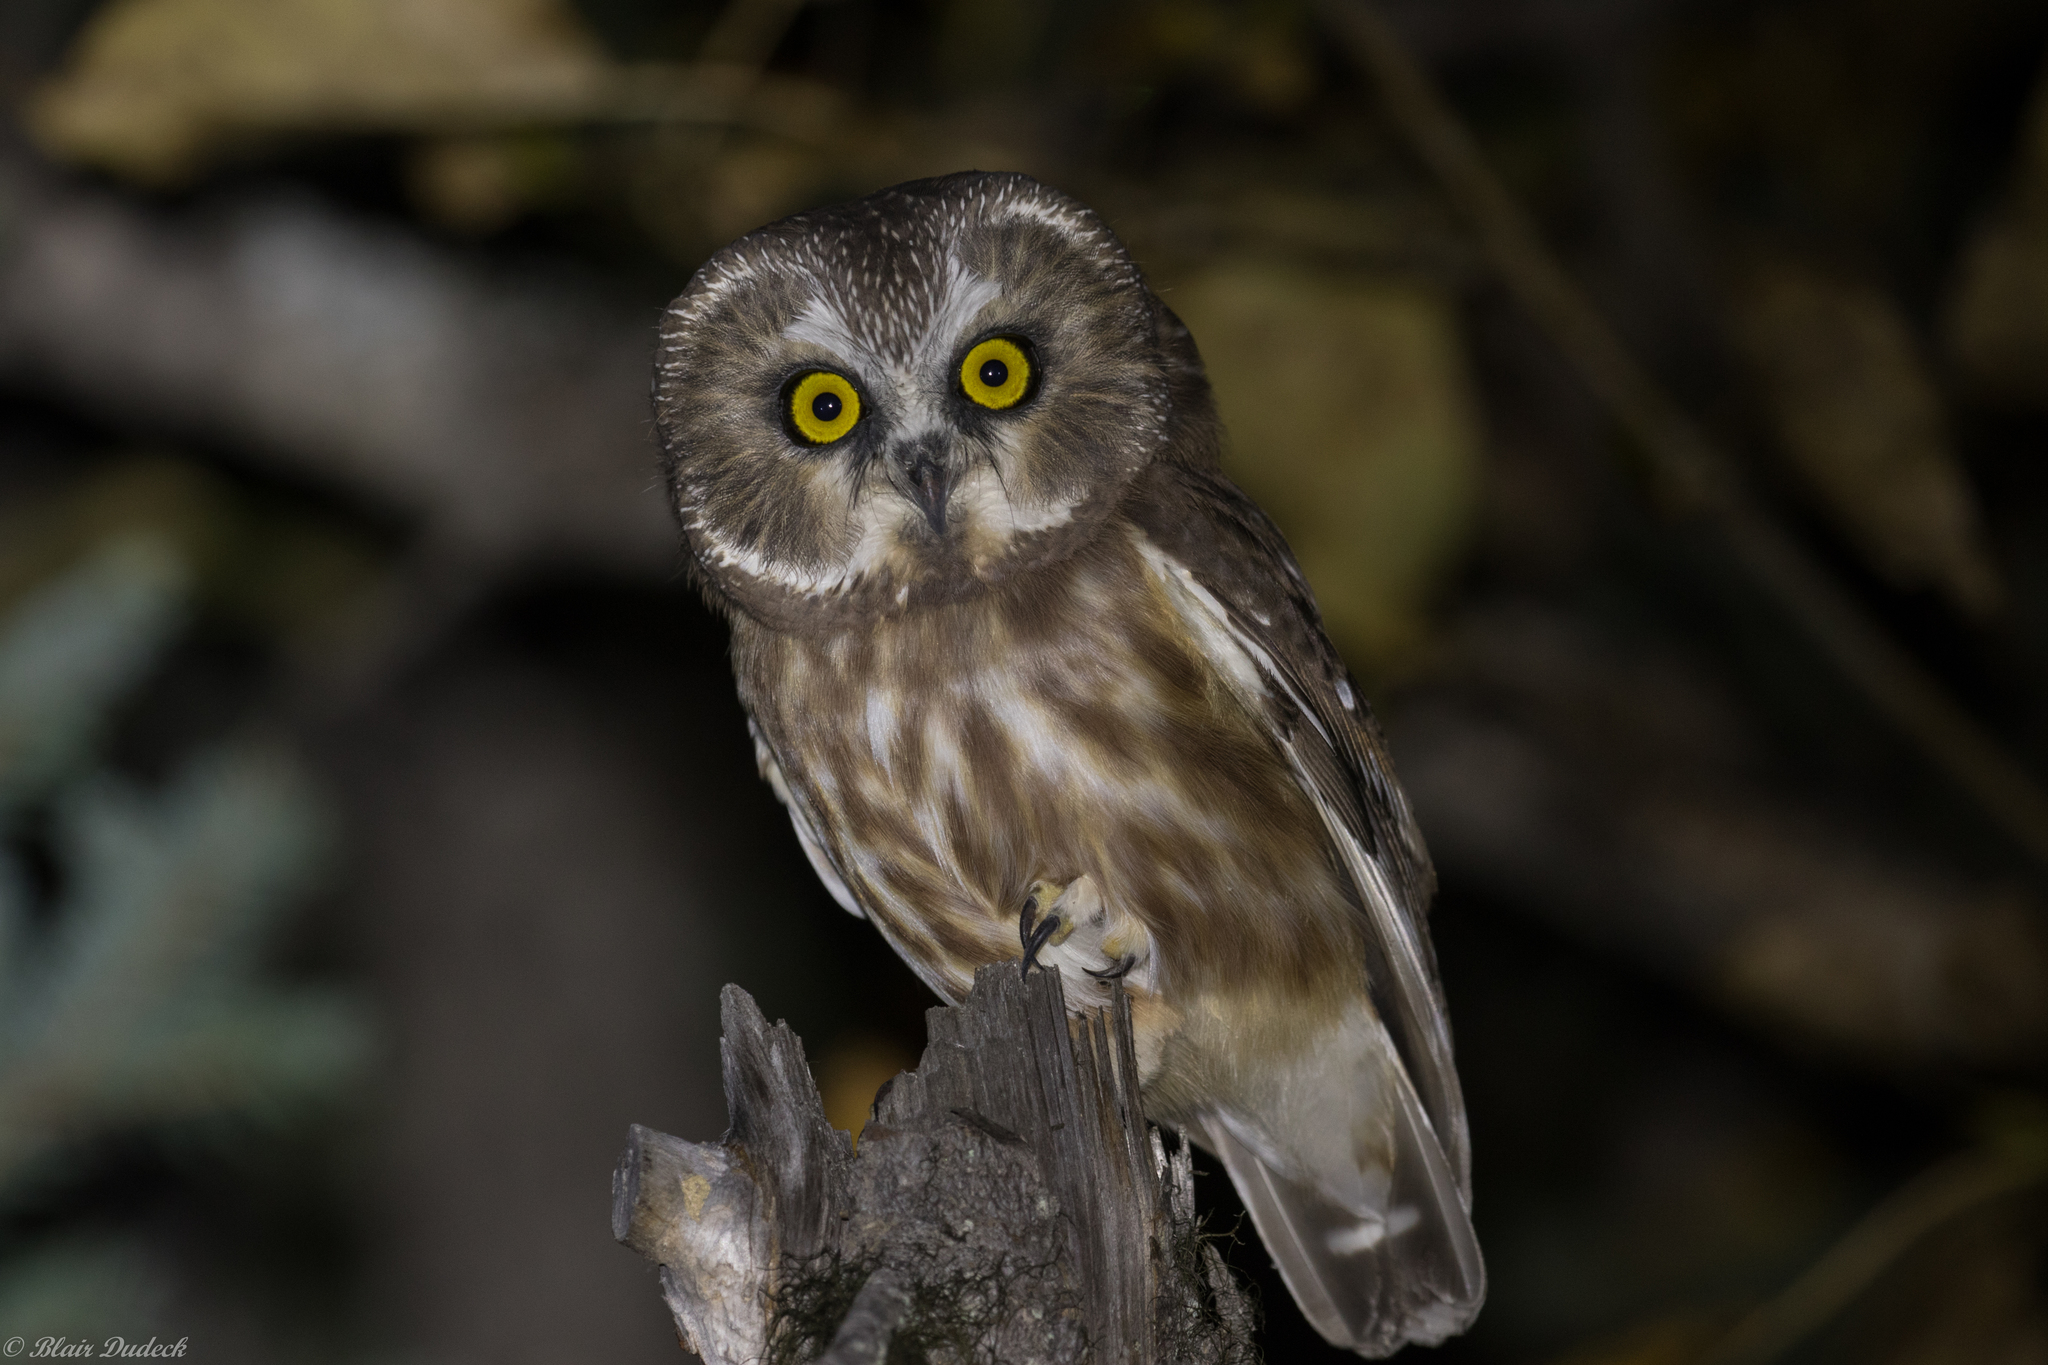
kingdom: Animalia
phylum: Chordata
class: Aves
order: Strigiformes
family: Strigidae
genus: Aegolius
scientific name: Aegolius acadicus
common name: Northern saw-whet owl
